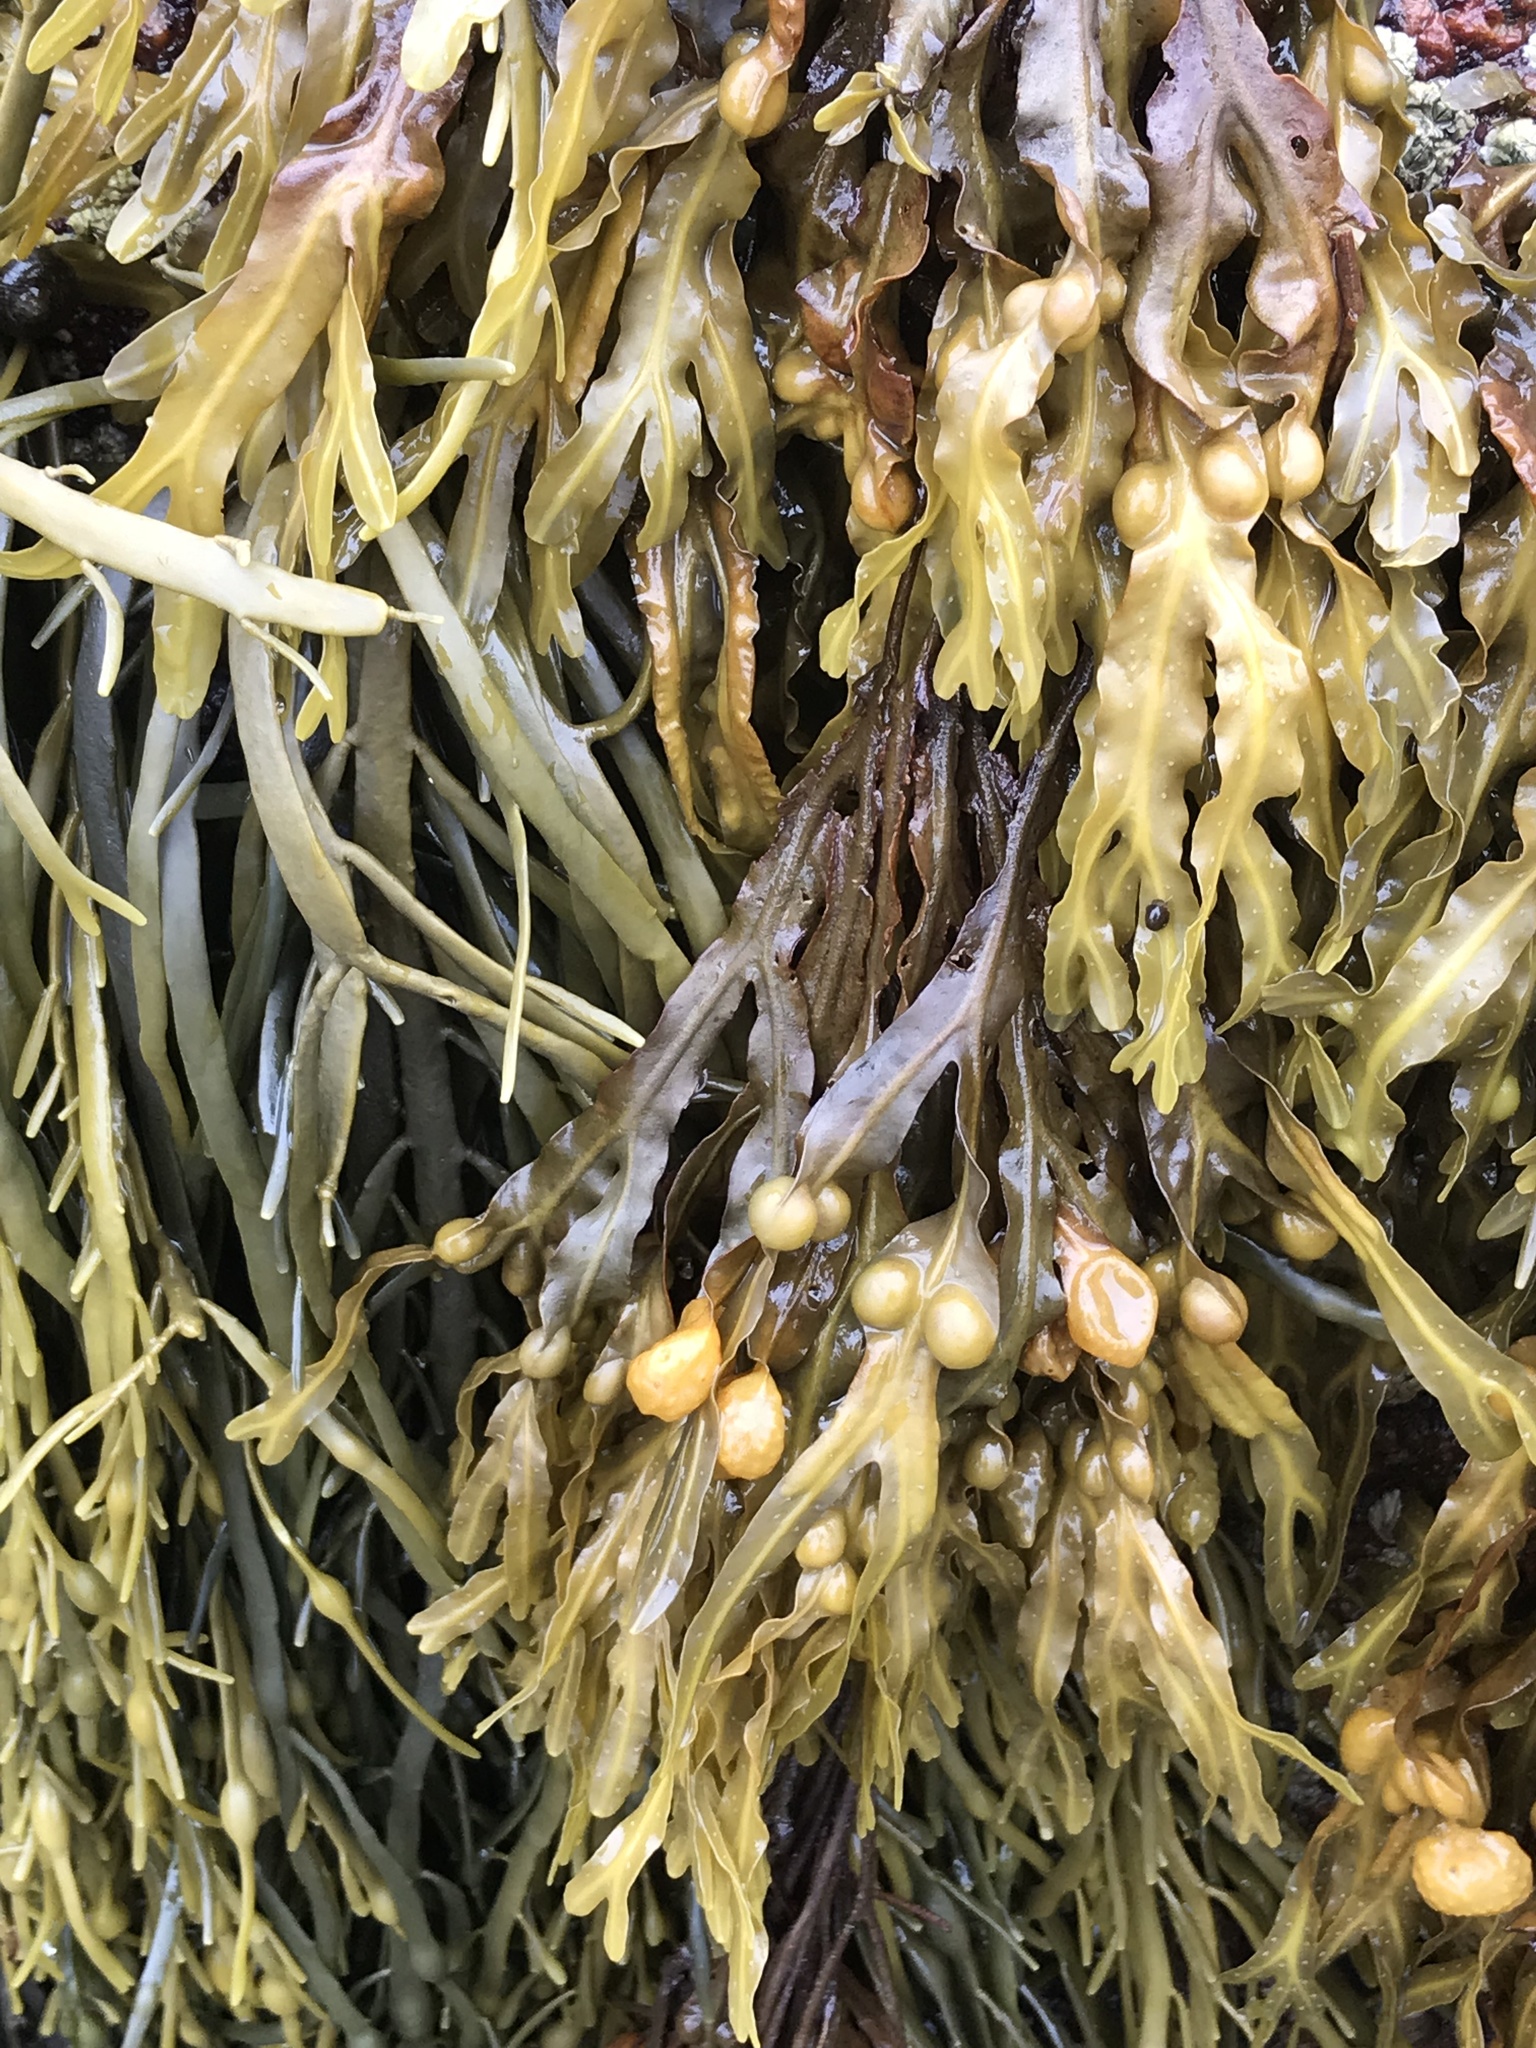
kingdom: Chromista
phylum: Ochrophyta
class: Phaeophyceae
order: Fucales
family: Fucaceae
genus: Fucus
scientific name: Fucus vesiculosus
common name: Bladder wrack
